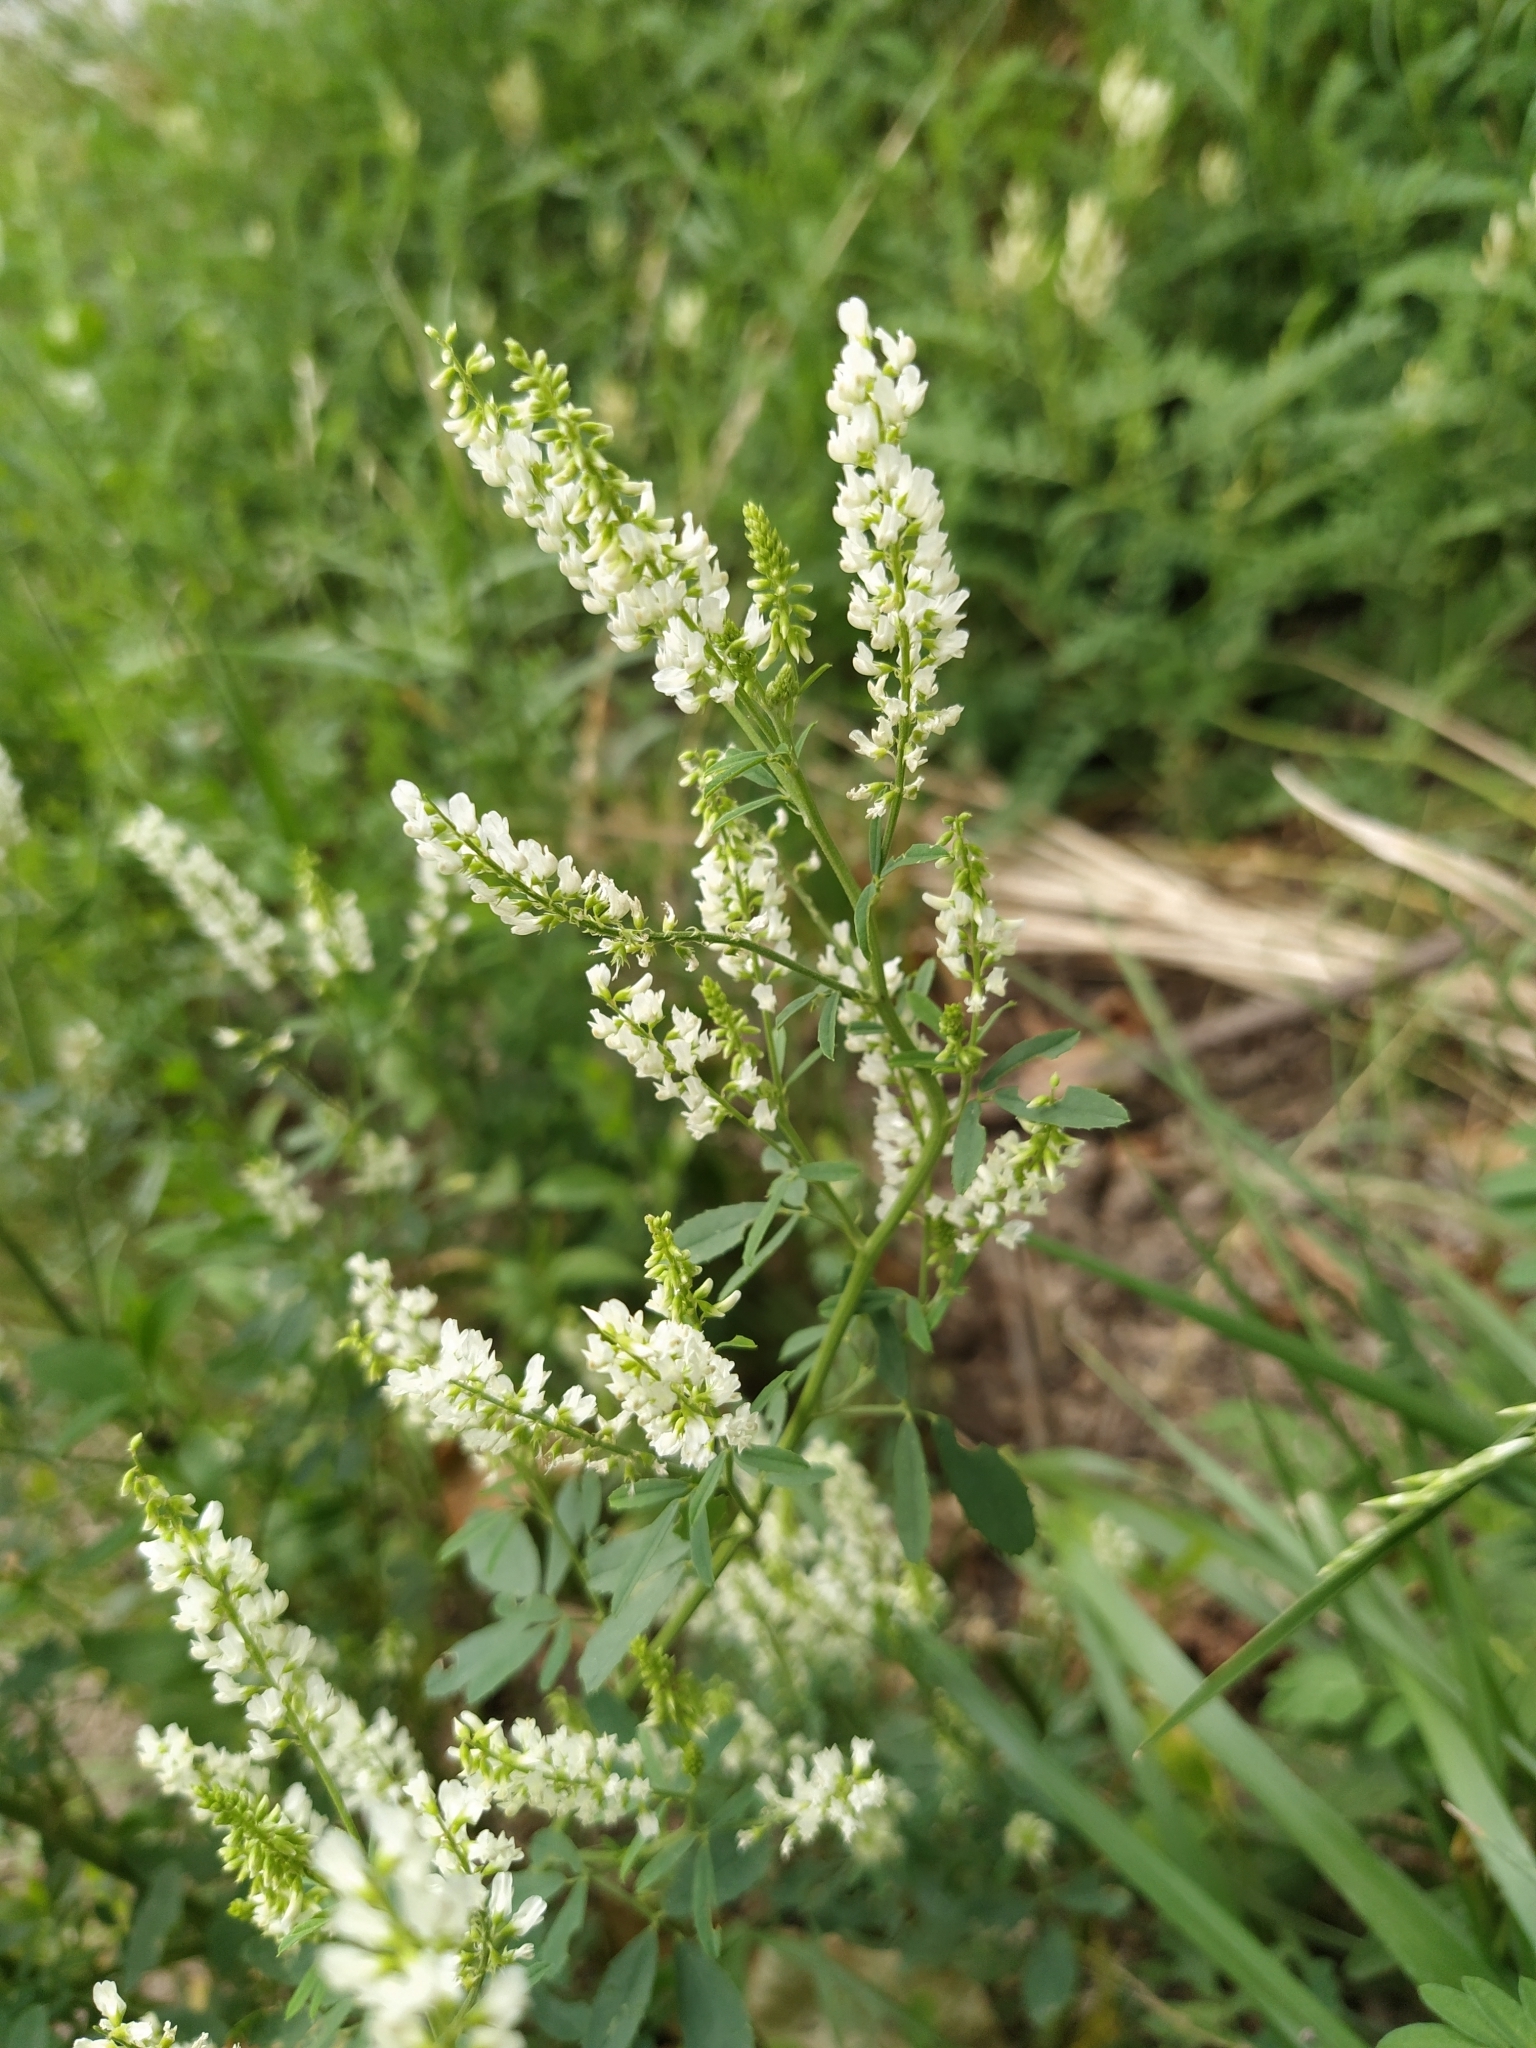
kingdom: Plantae
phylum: Tracheophyta
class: Magnoliopsida
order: Fabales
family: Fabaceae
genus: Melilotus
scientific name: Melilotus albus
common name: White melilot
